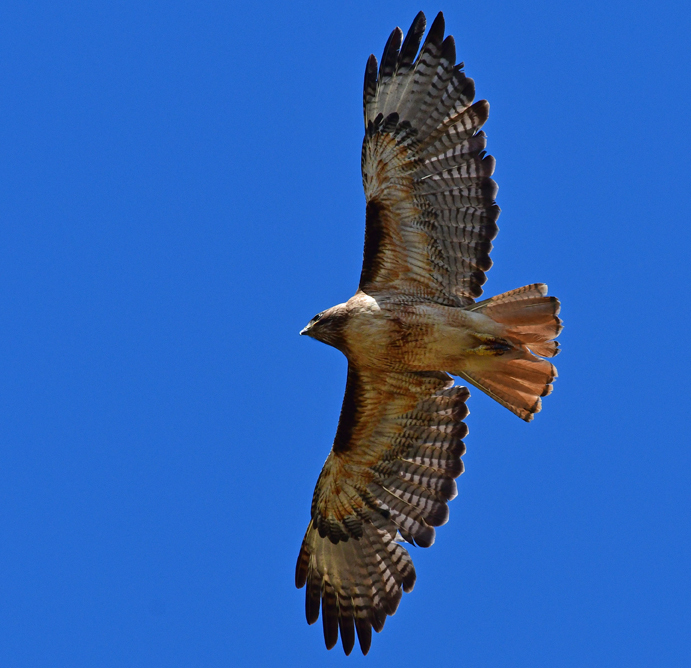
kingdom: Animalia
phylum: Chordata
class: Aves
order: Accipitriformes
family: Accipitridae
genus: Buteo
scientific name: Buteo jamaicensis
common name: Red-tailed hawk
